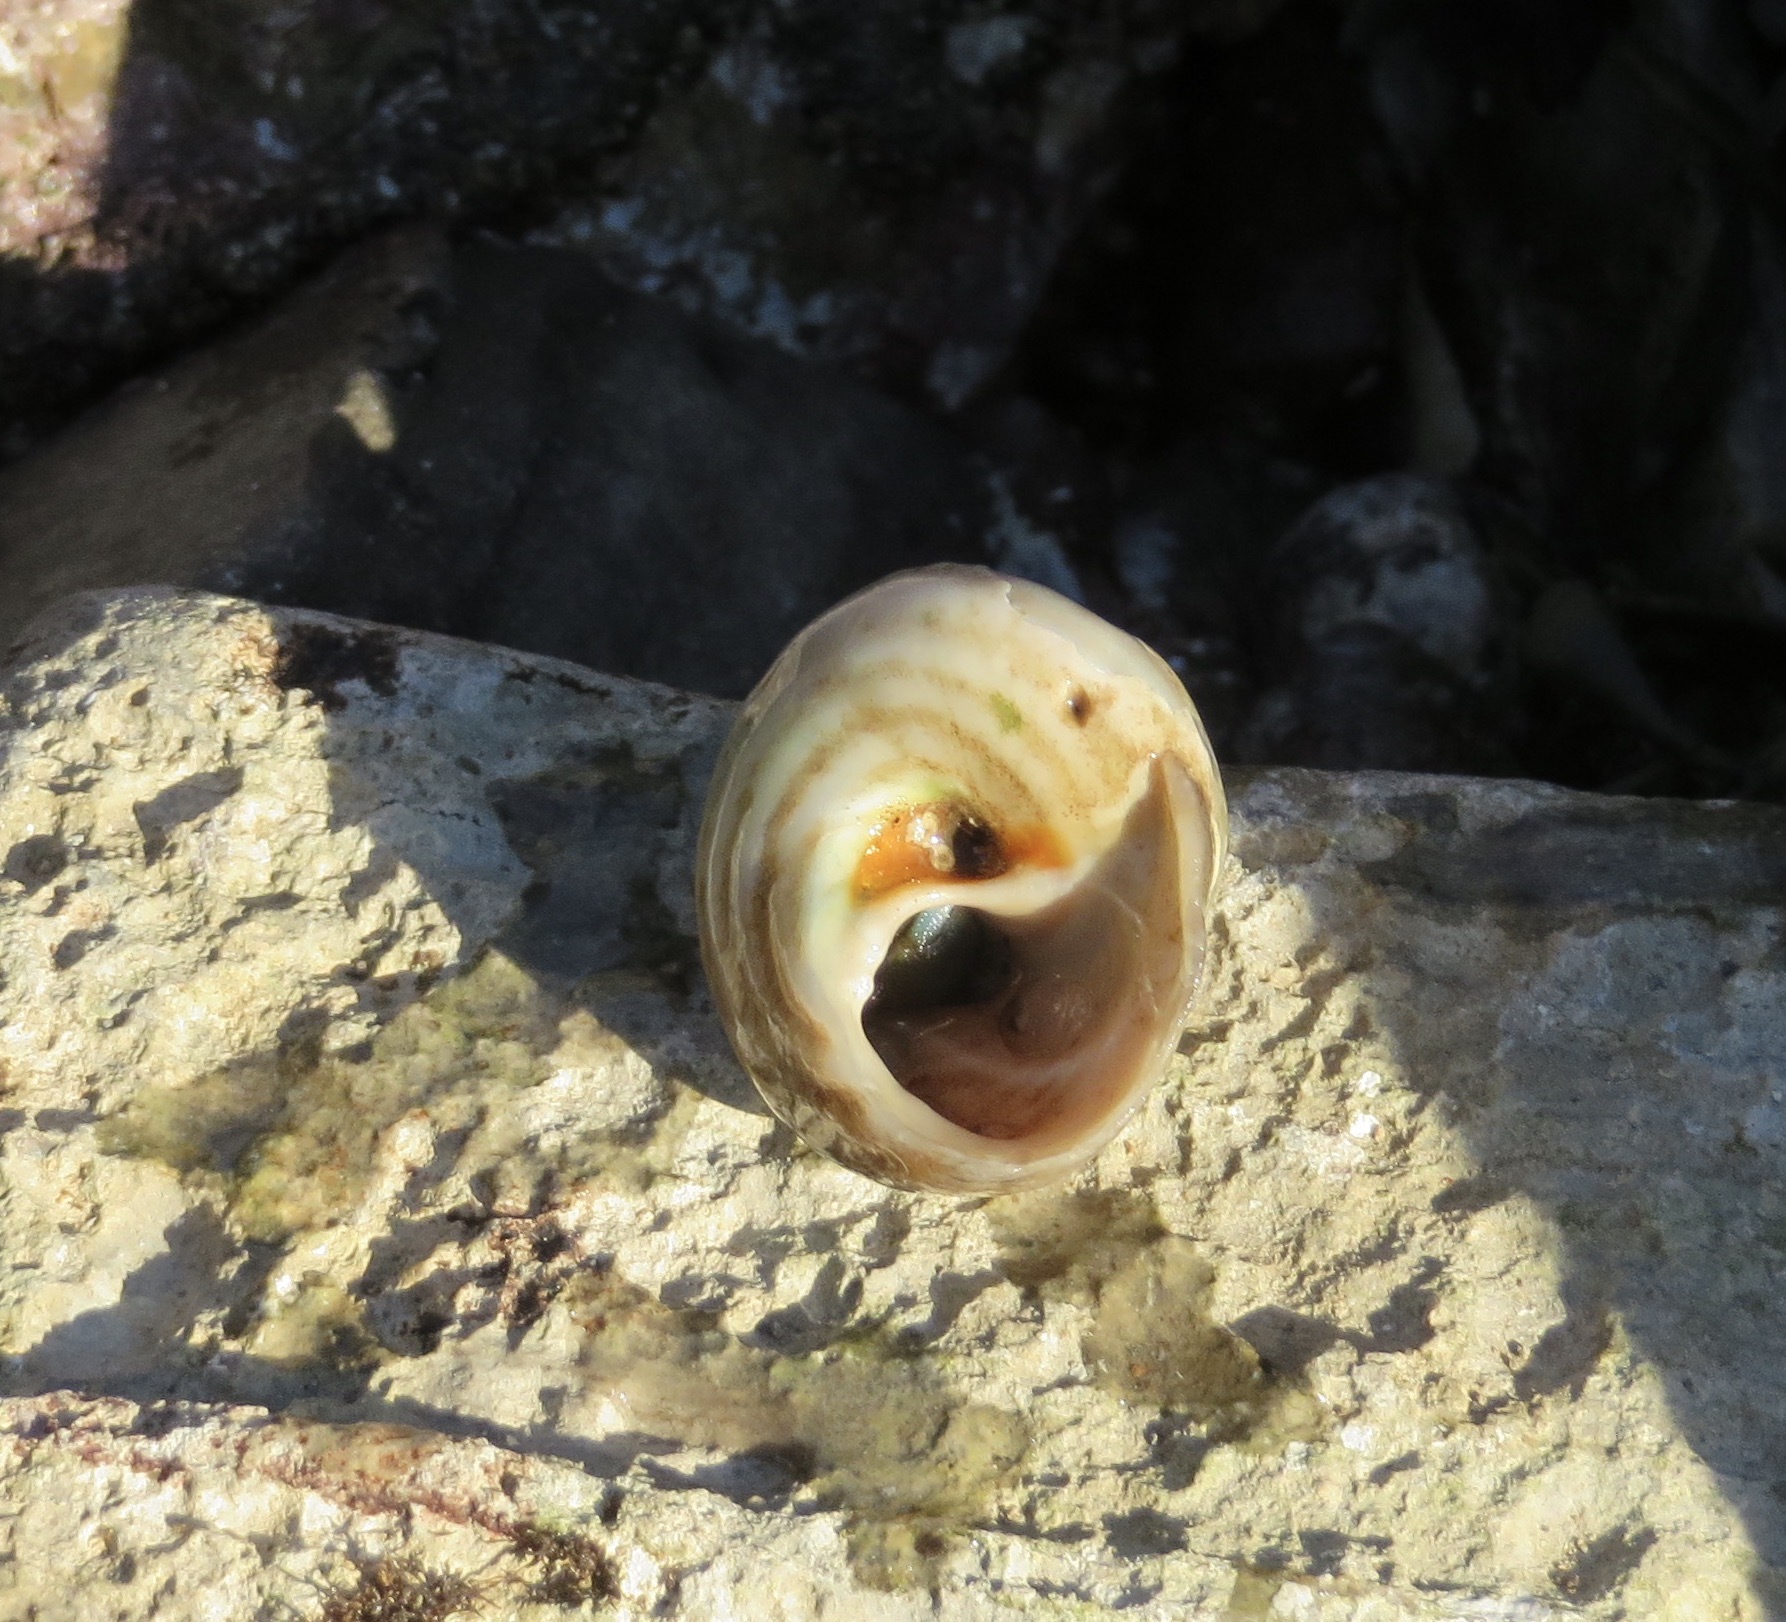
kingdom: Animalia
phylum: Mollusca
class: Gastropoda
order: Trochida
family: Tegulidae
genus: Tegula
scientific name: Tegula aureotincta
